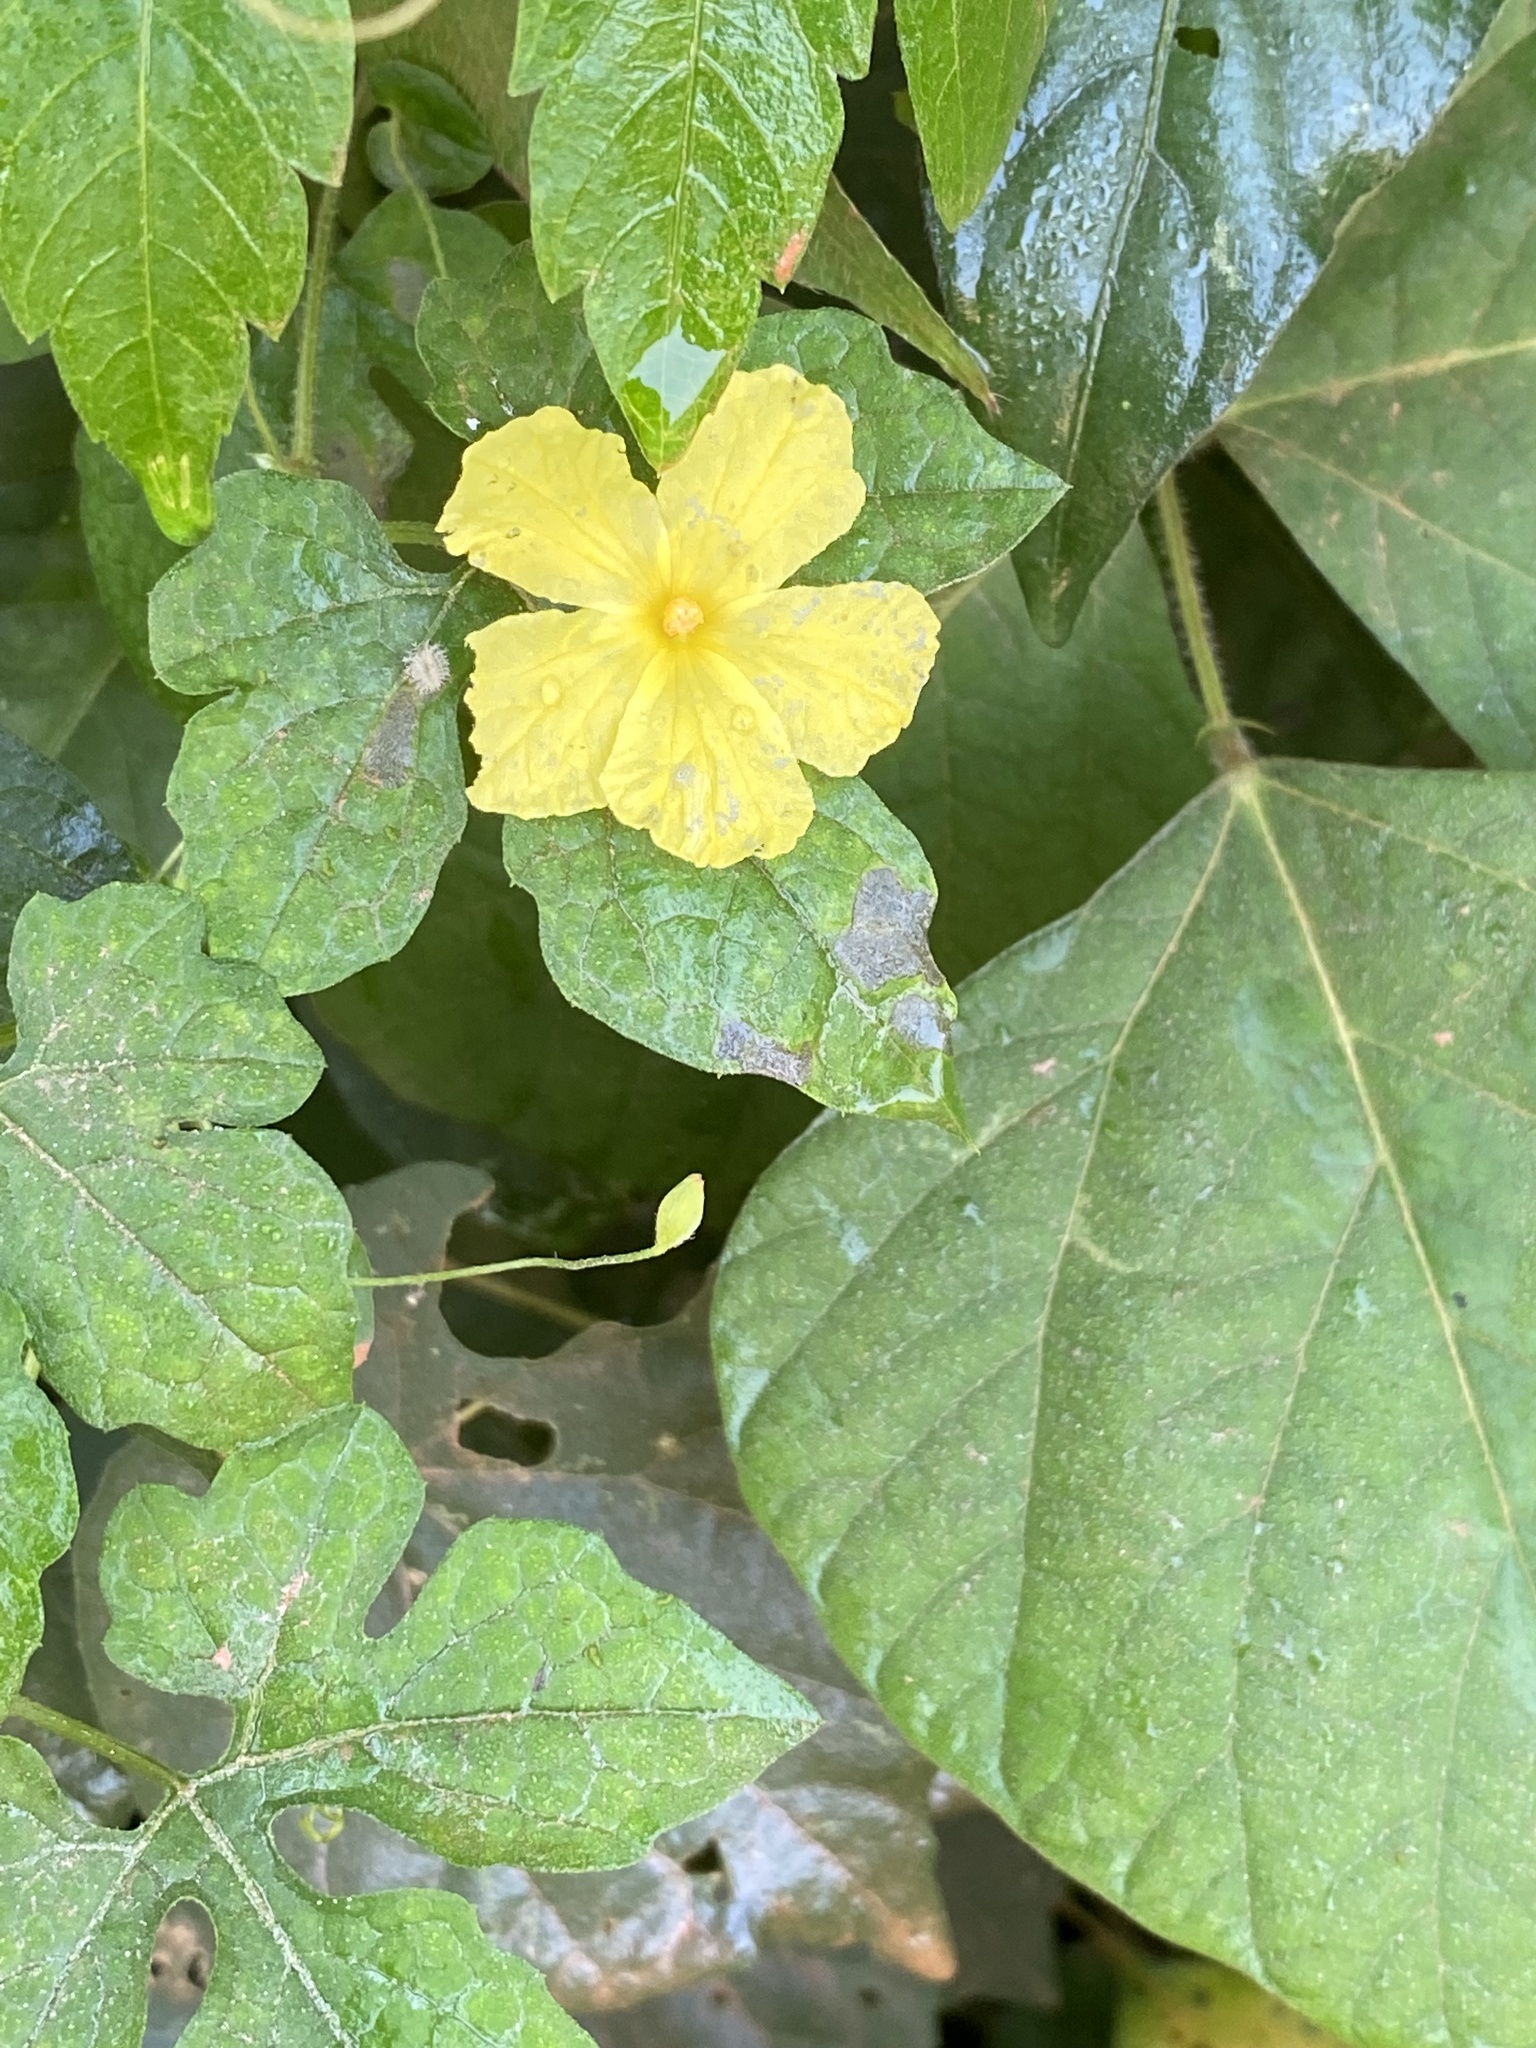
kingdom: Plantae
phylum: Tracheophyta
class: Magnoliopsida
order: Cucurbitales
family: Cucurbitaceae
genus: Momordica
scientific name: Momordica charantia
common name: Balsampear
